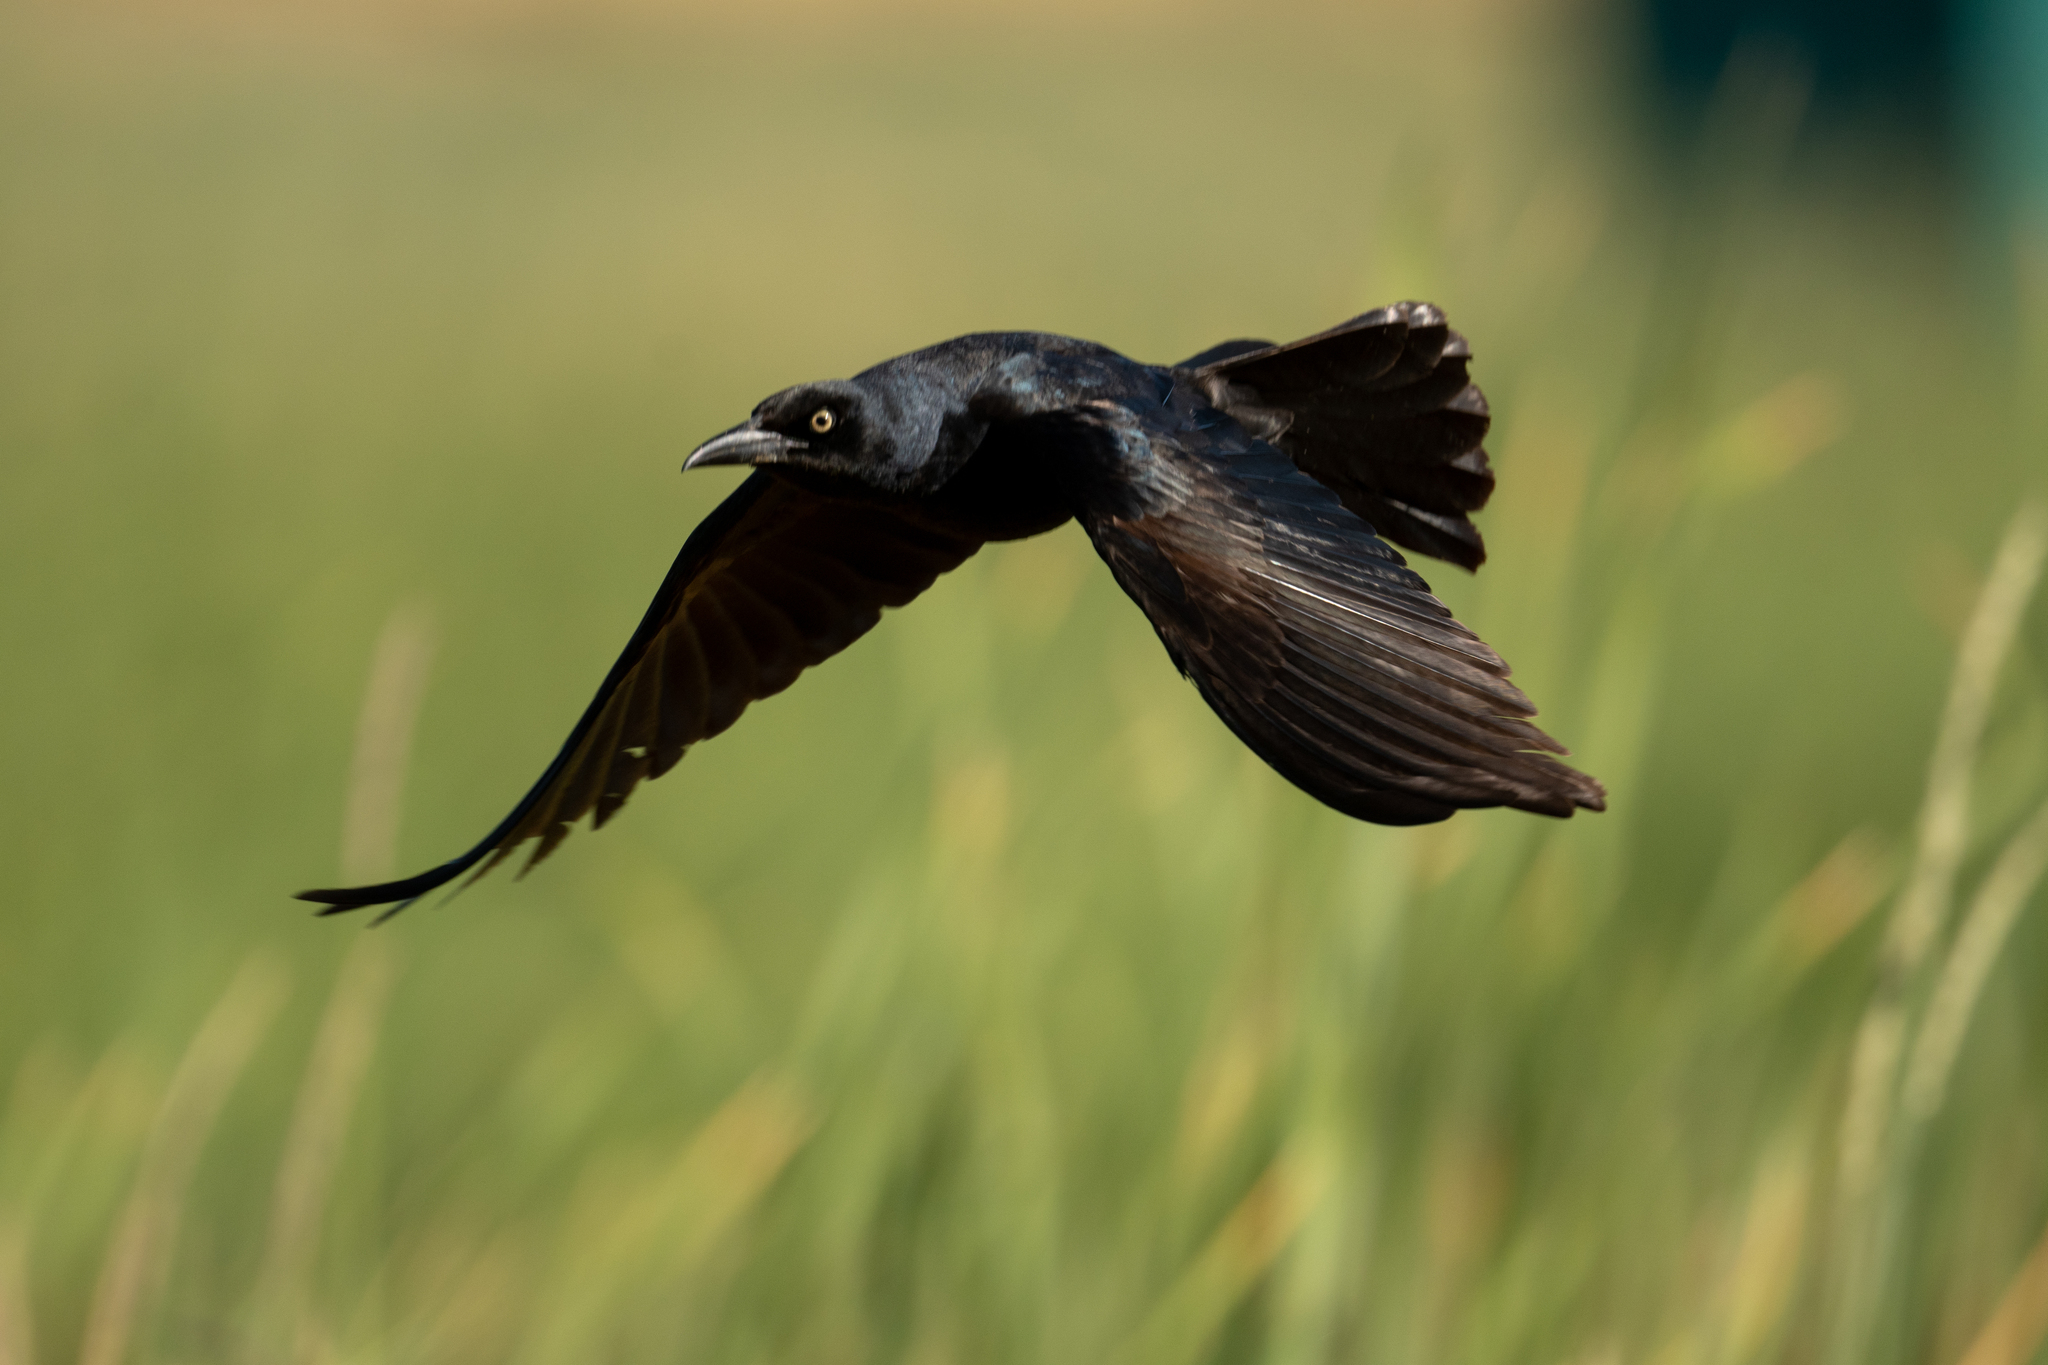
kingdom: Animalia
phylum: Chordata
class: Aves
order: Passeriformes
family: Icteridae
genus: Quiscalus
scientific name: Quiscalus mexicanus
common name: Great-tailed grackle
